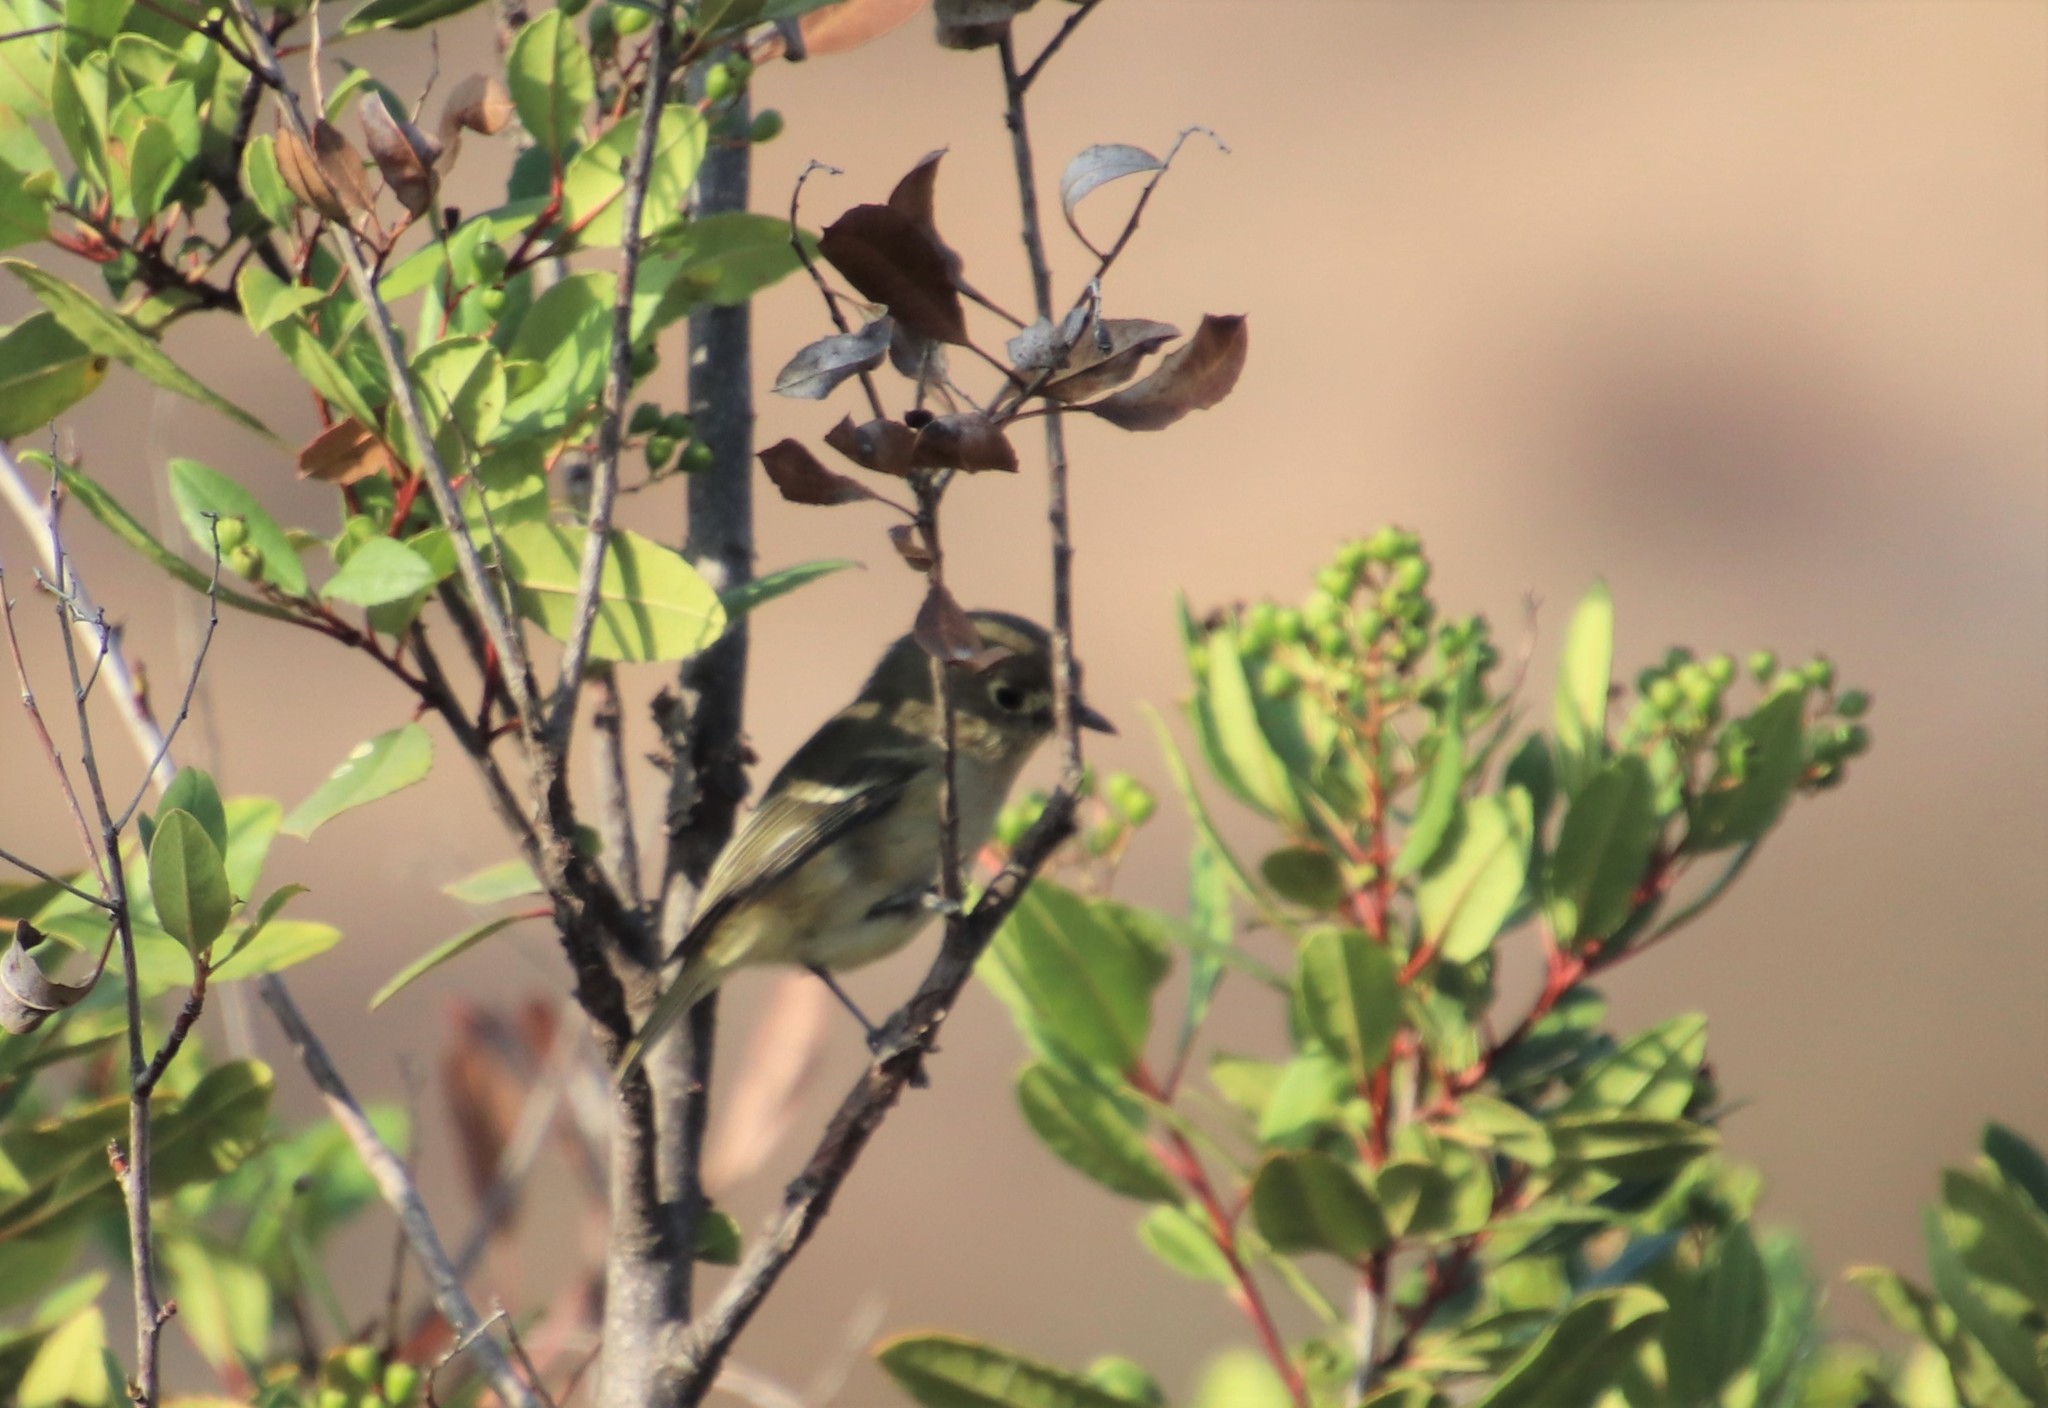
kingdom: Animalia
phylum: Chordata
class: Aves
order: Passeriformes
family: Vireonidae
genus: Vireo
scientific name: Vireo huttoni
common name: Hutton's vireo
